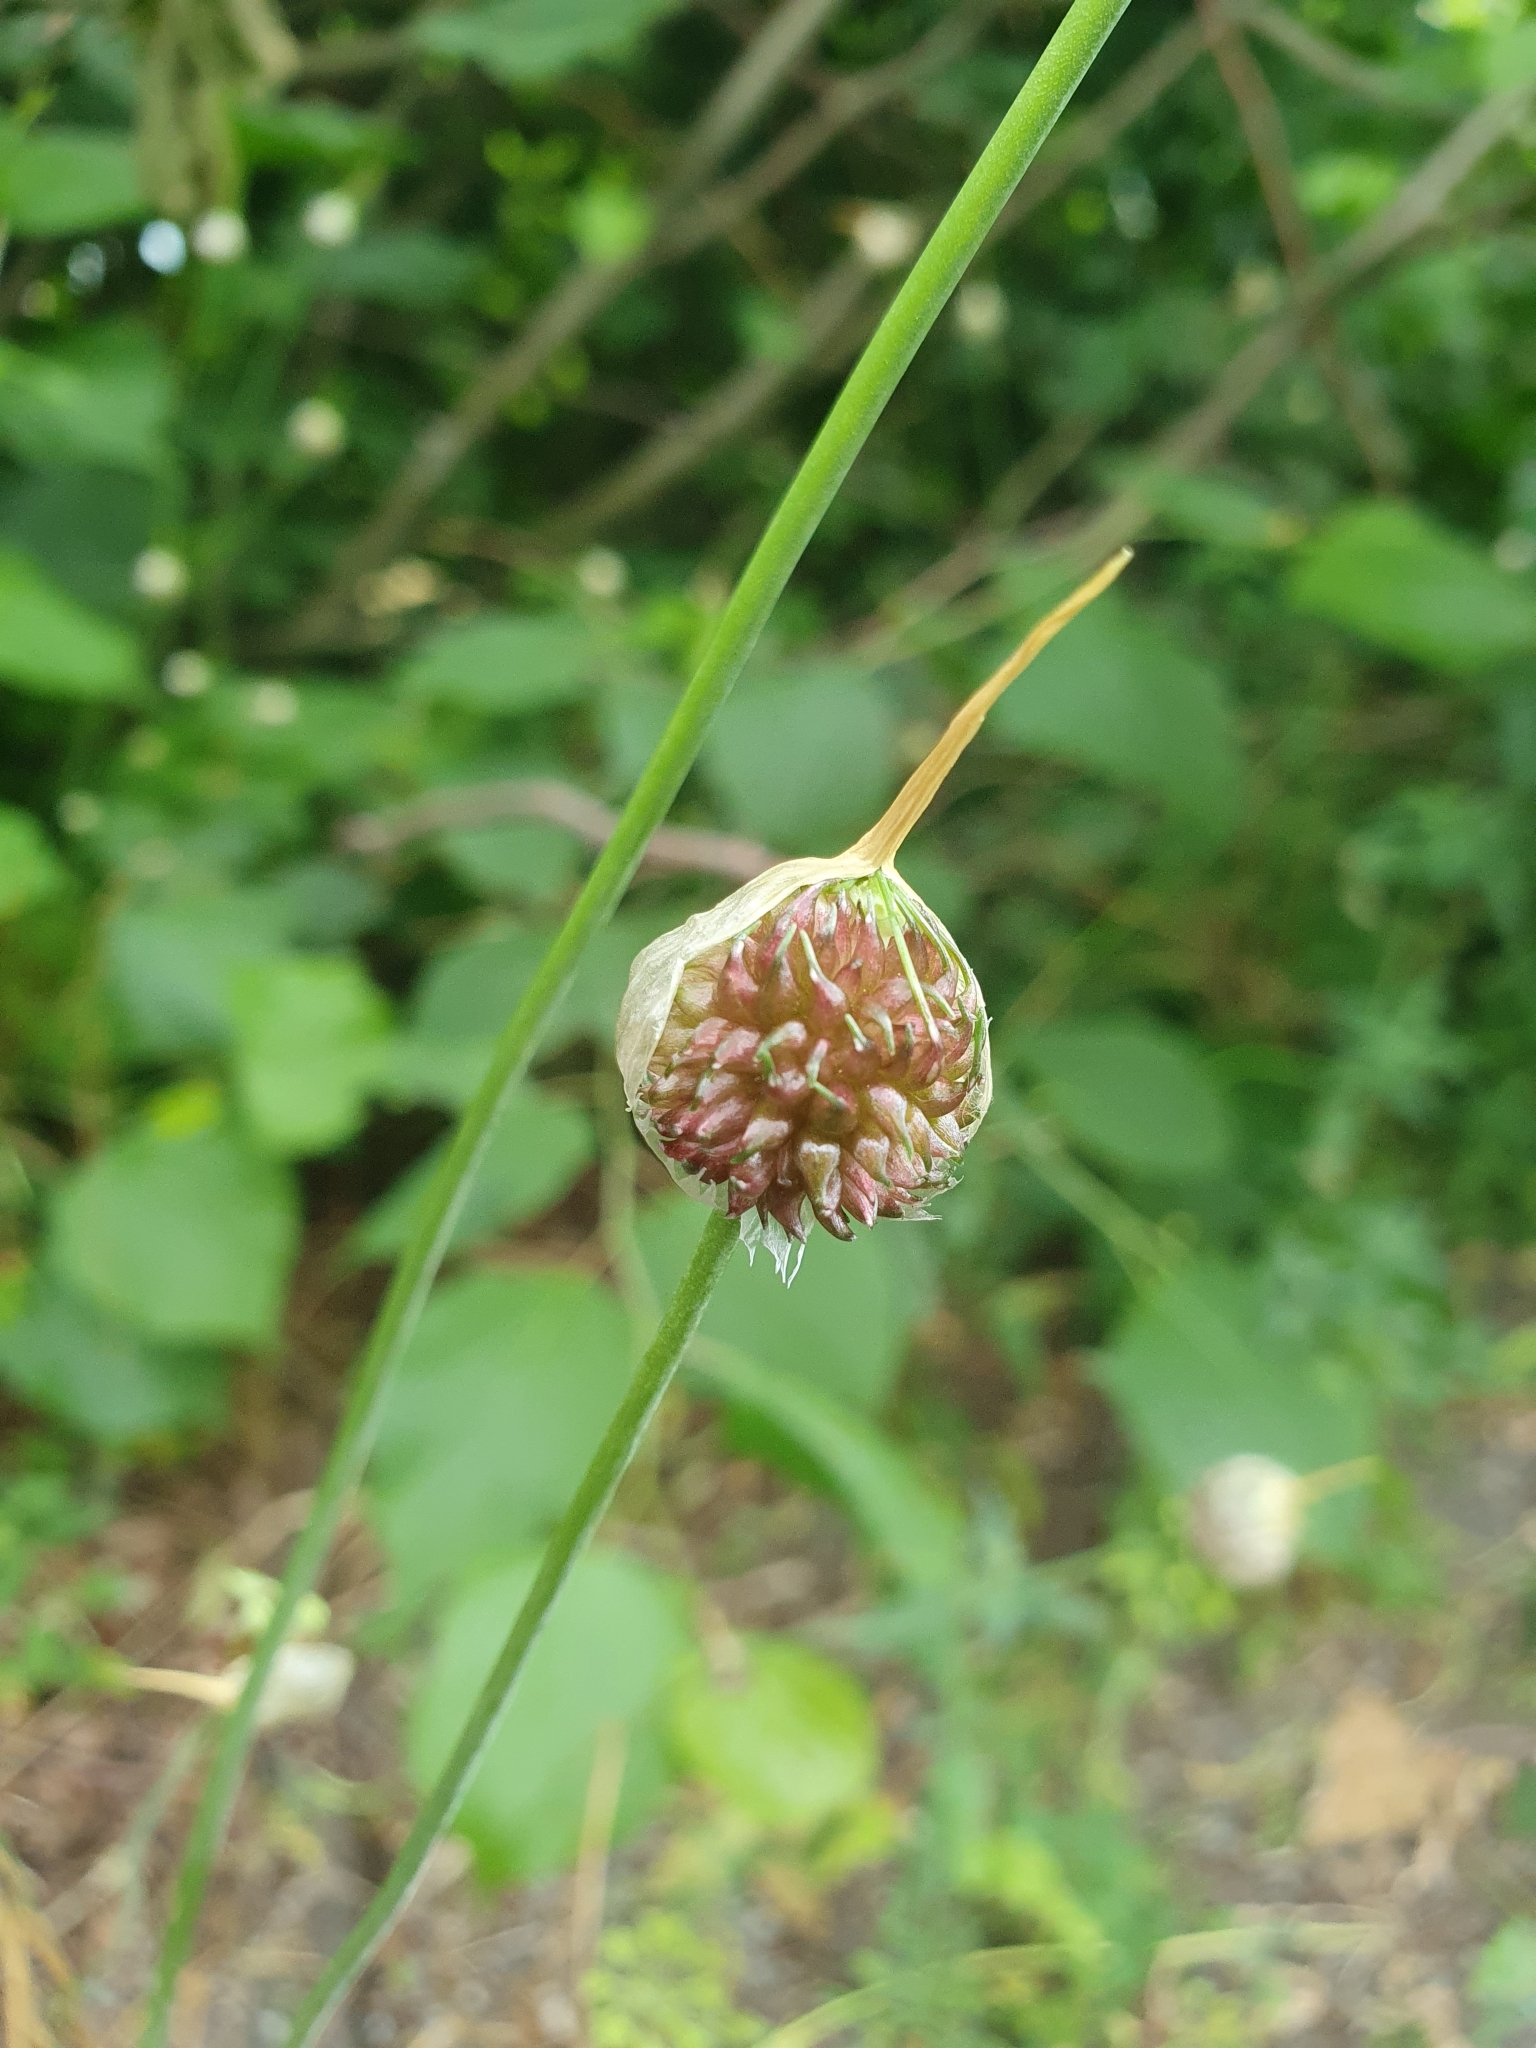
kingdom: Plantae
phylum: Tracheophyta
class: Liliopsida
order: Asparagales
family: Amaryllidaceae
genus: Allium
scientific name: Allium vineale
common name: Crow garlic
